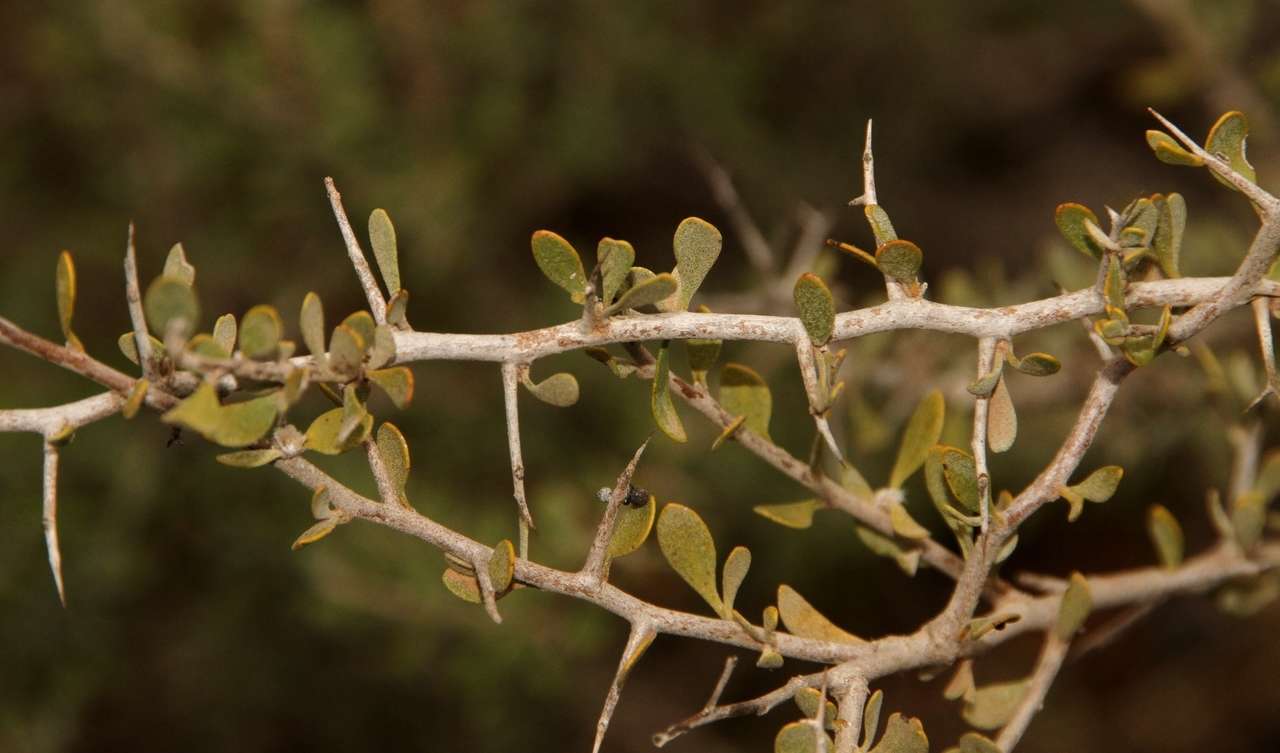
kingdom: Plantae
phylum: Tracheophyta
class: Magnoliopsida
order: Asterales
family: Goodeniaceae
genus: Scaevola
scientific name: Scaevola spinescens
